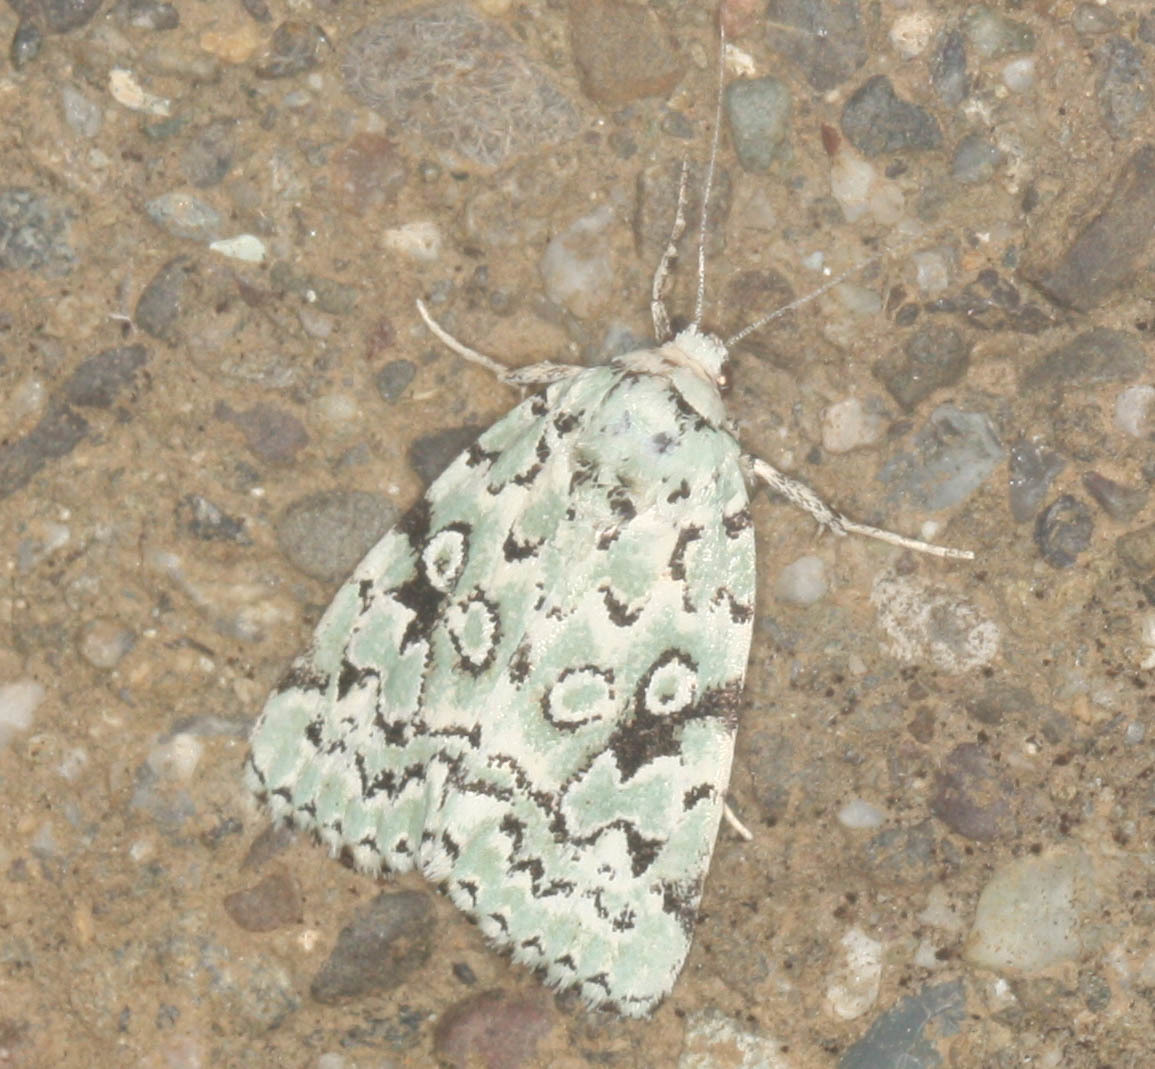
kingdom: Animalia
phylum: Arthropoda
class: Insecta
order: Lepidoptera
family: Noctuidae
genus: Bryolymnia
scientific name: Bryolymnia viridata
